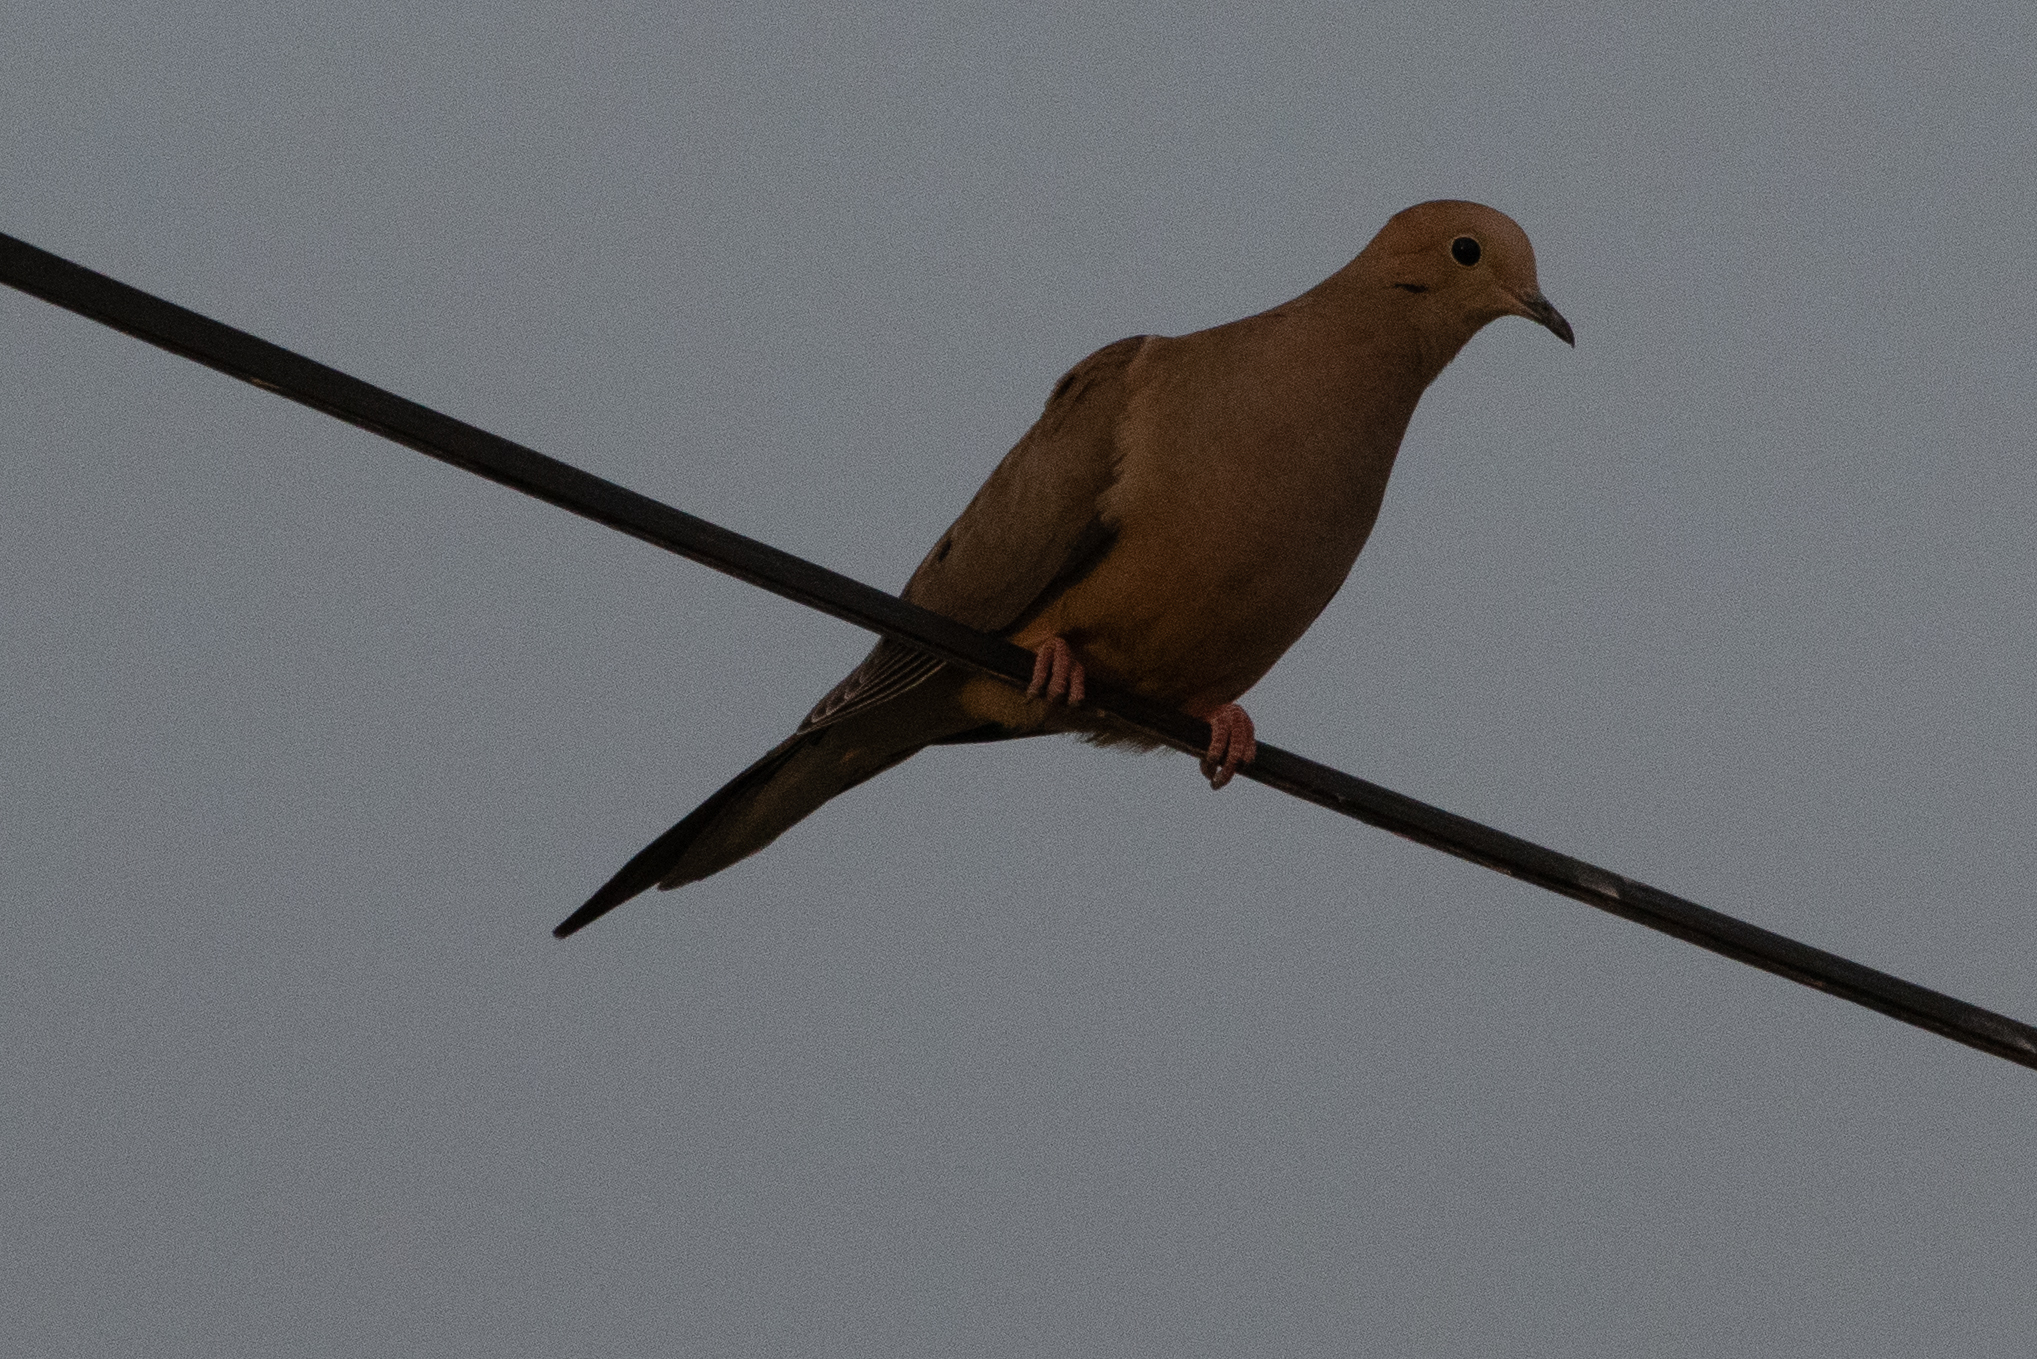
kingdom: Animalia
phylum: Chordata
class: Aves
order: Columbiformes
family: Columbidae
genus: Zenaida
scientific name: Zenaida macroura
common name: Mourning dove
